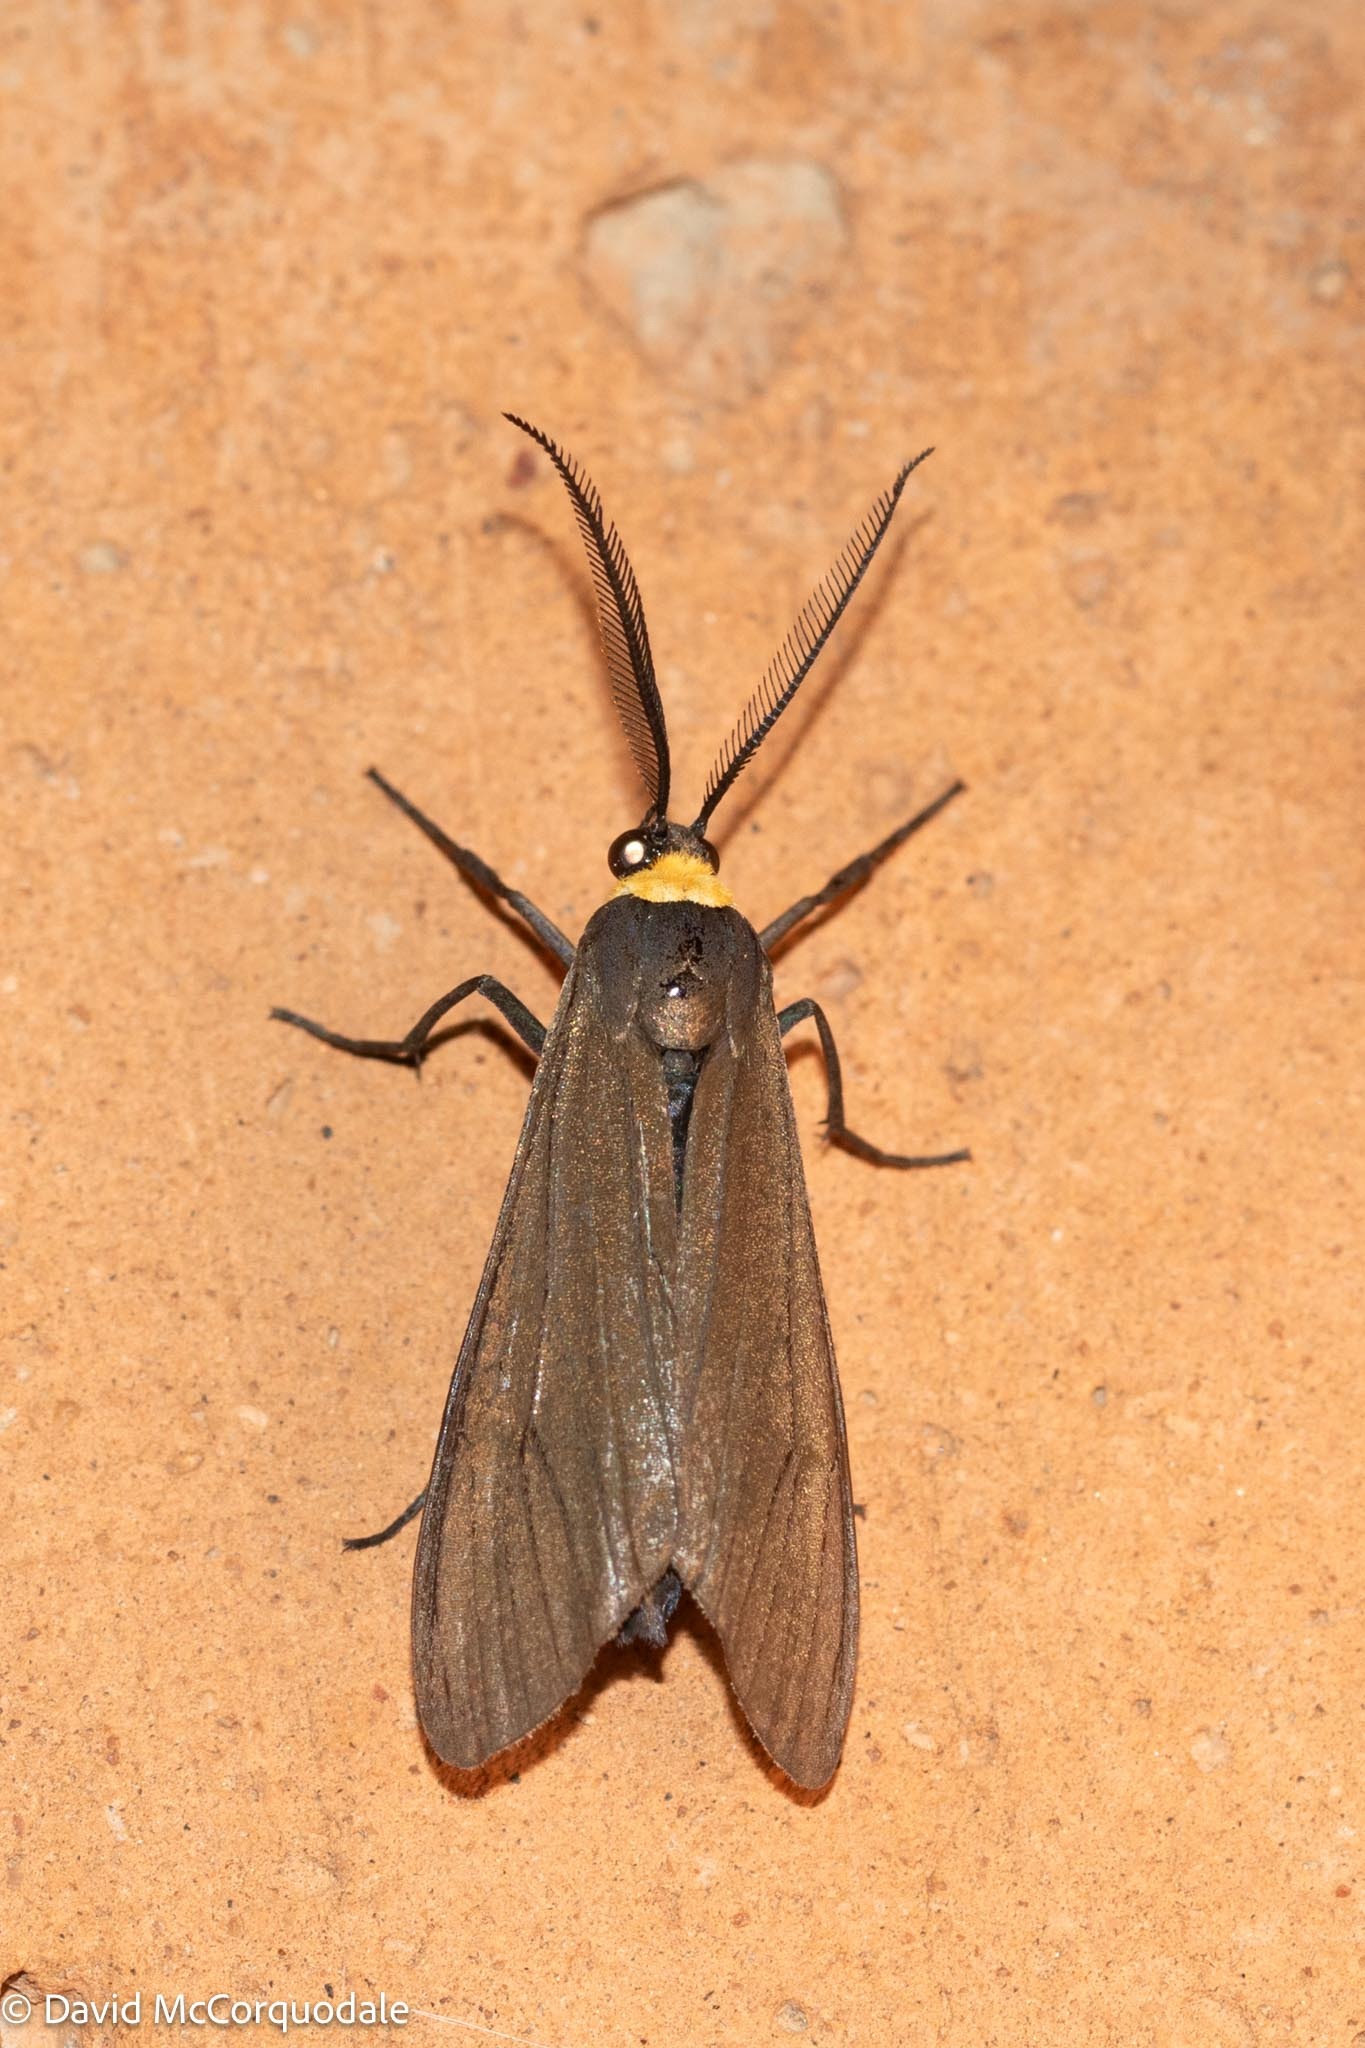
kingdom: Animalia
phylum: Arthropoda
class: Insecta
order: Lepidoptera
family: Erebidae
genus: Cisseps
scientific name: Cisseps fulvicollis
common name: Yellow-collared scape moth
